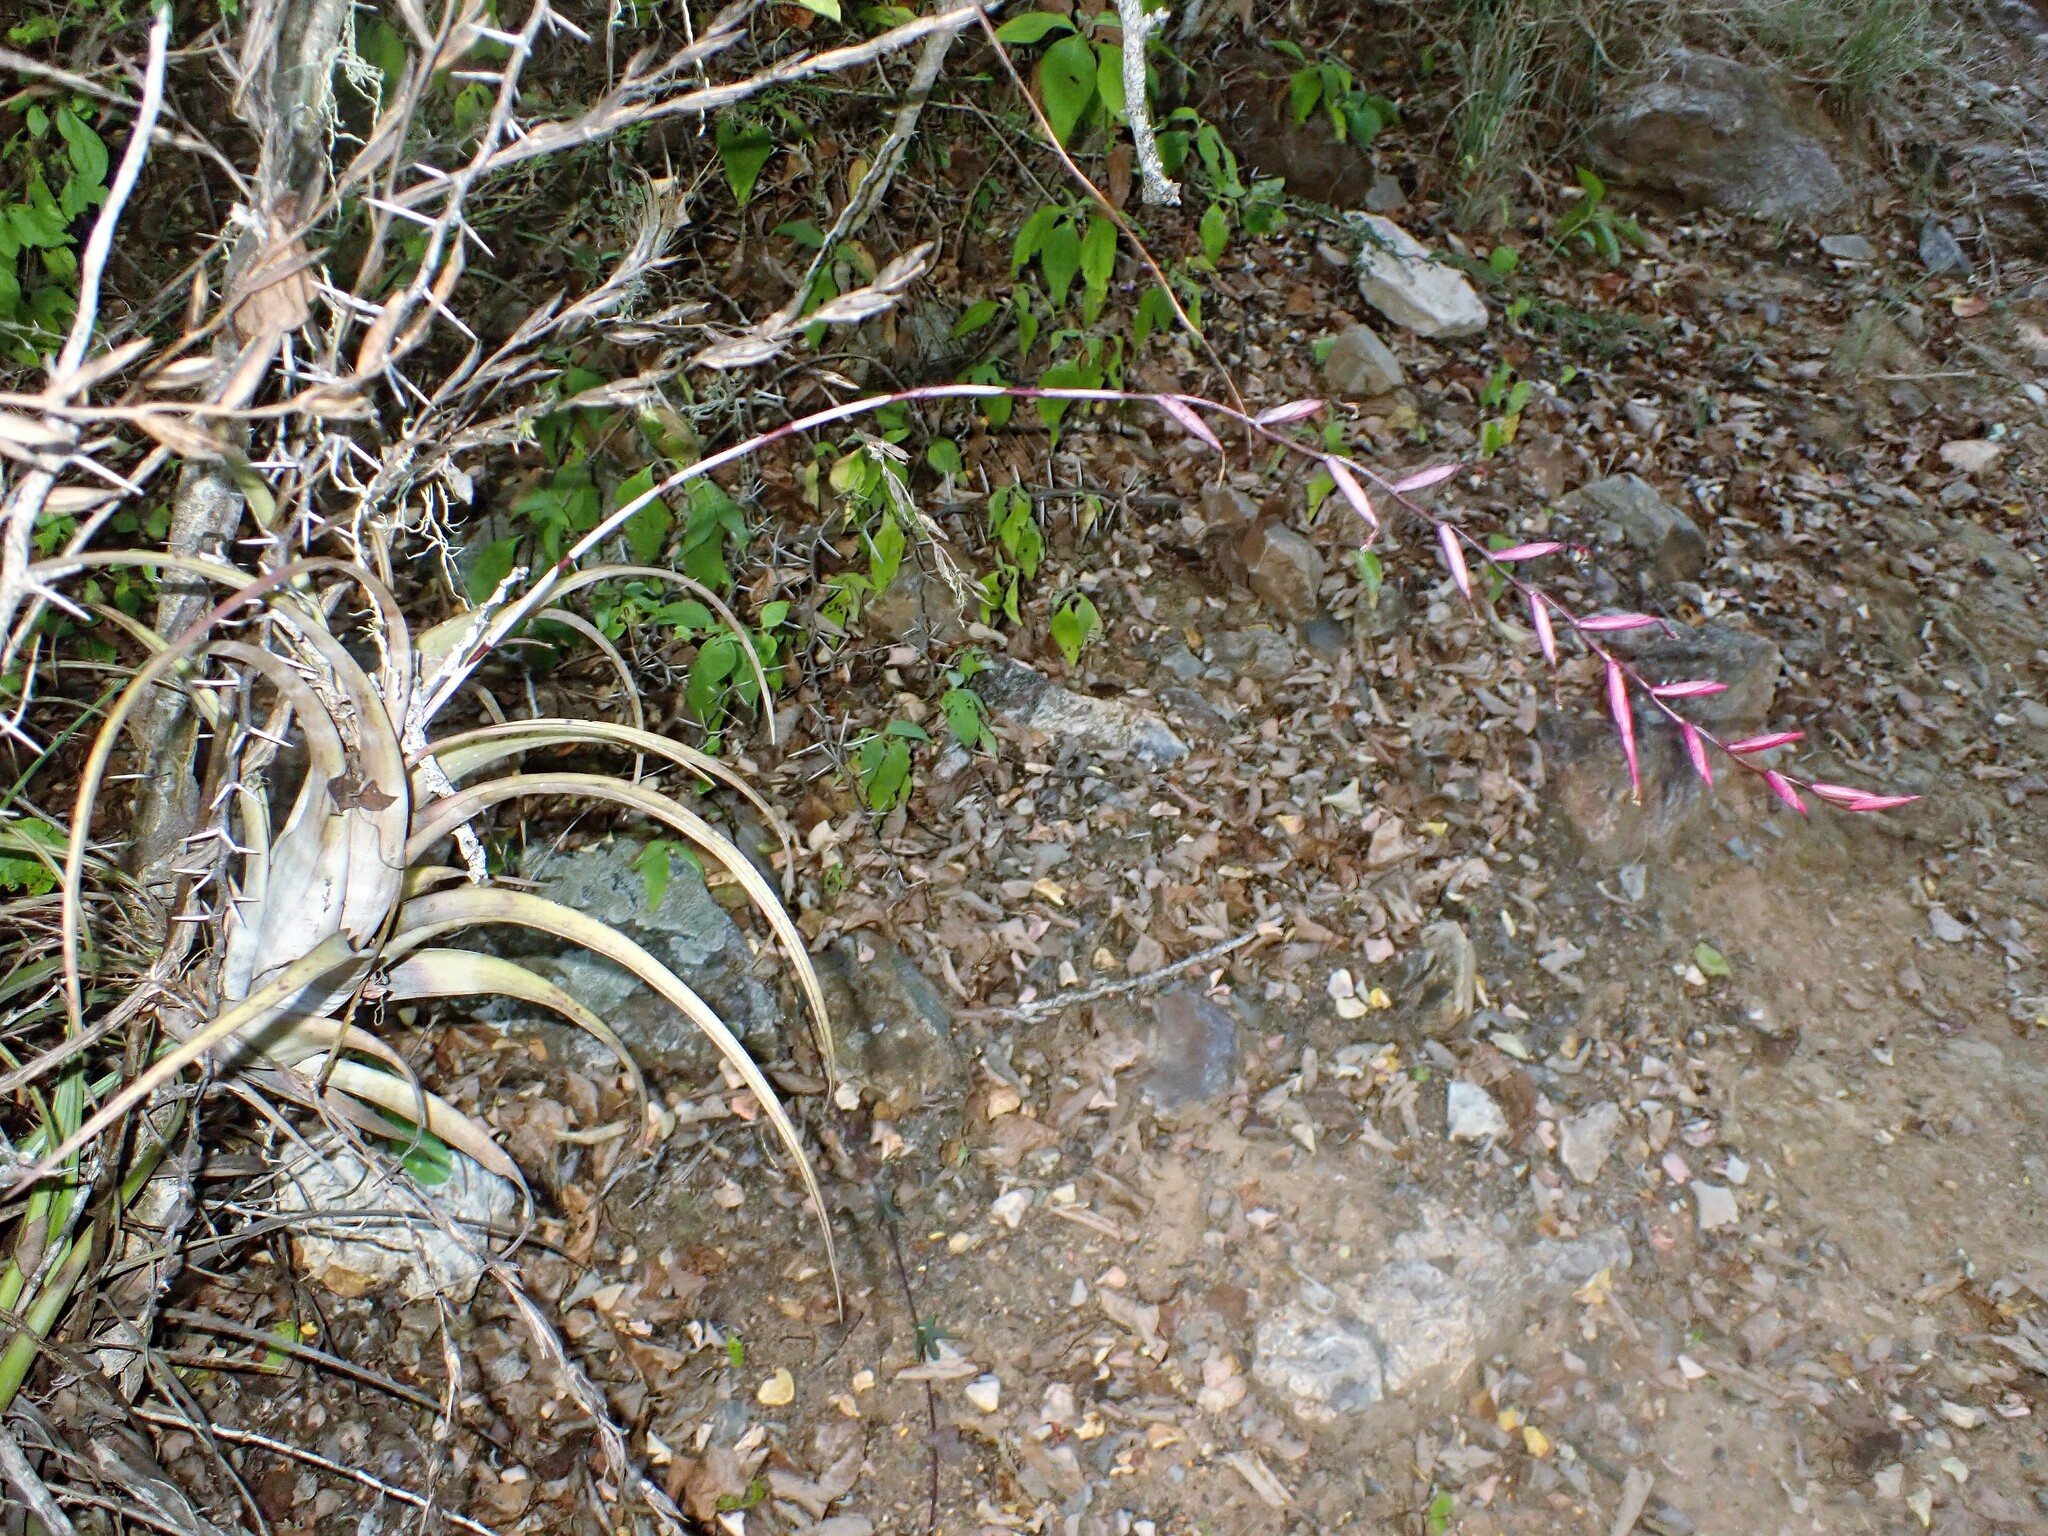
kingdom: Plantae
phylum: Tracheophyta
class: Liliopsida
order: Poales
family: Bromeliaceae
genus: Tillandsia
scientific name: Tillandsia flexuosa
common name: Banded airplant
